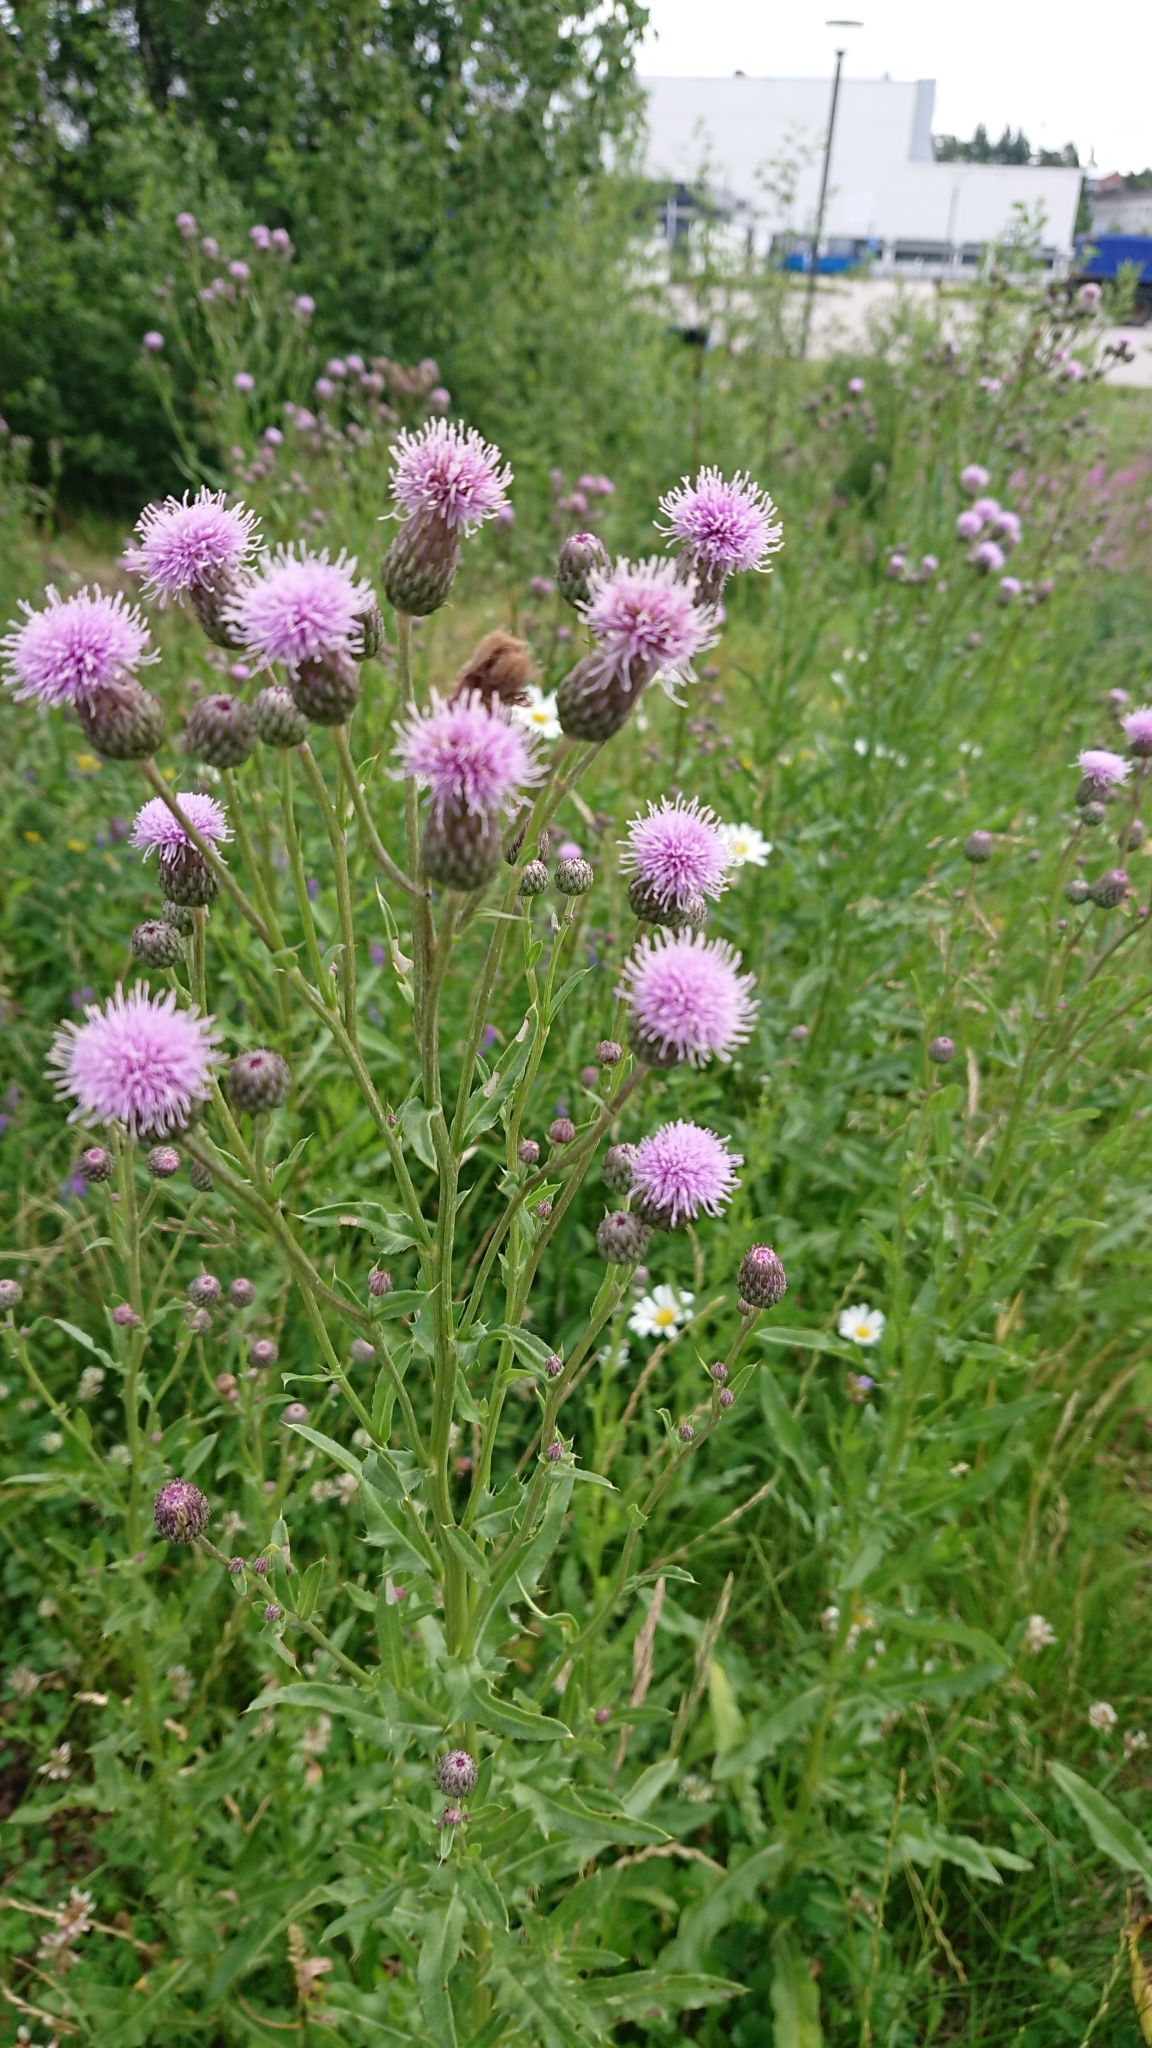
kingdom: Plantae
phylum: Tracheophyta
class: Magnoliopsida
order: Asterales
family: Asteraceae
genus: Cirsium
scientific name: Cirsium arvense
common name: Creeping thistle
